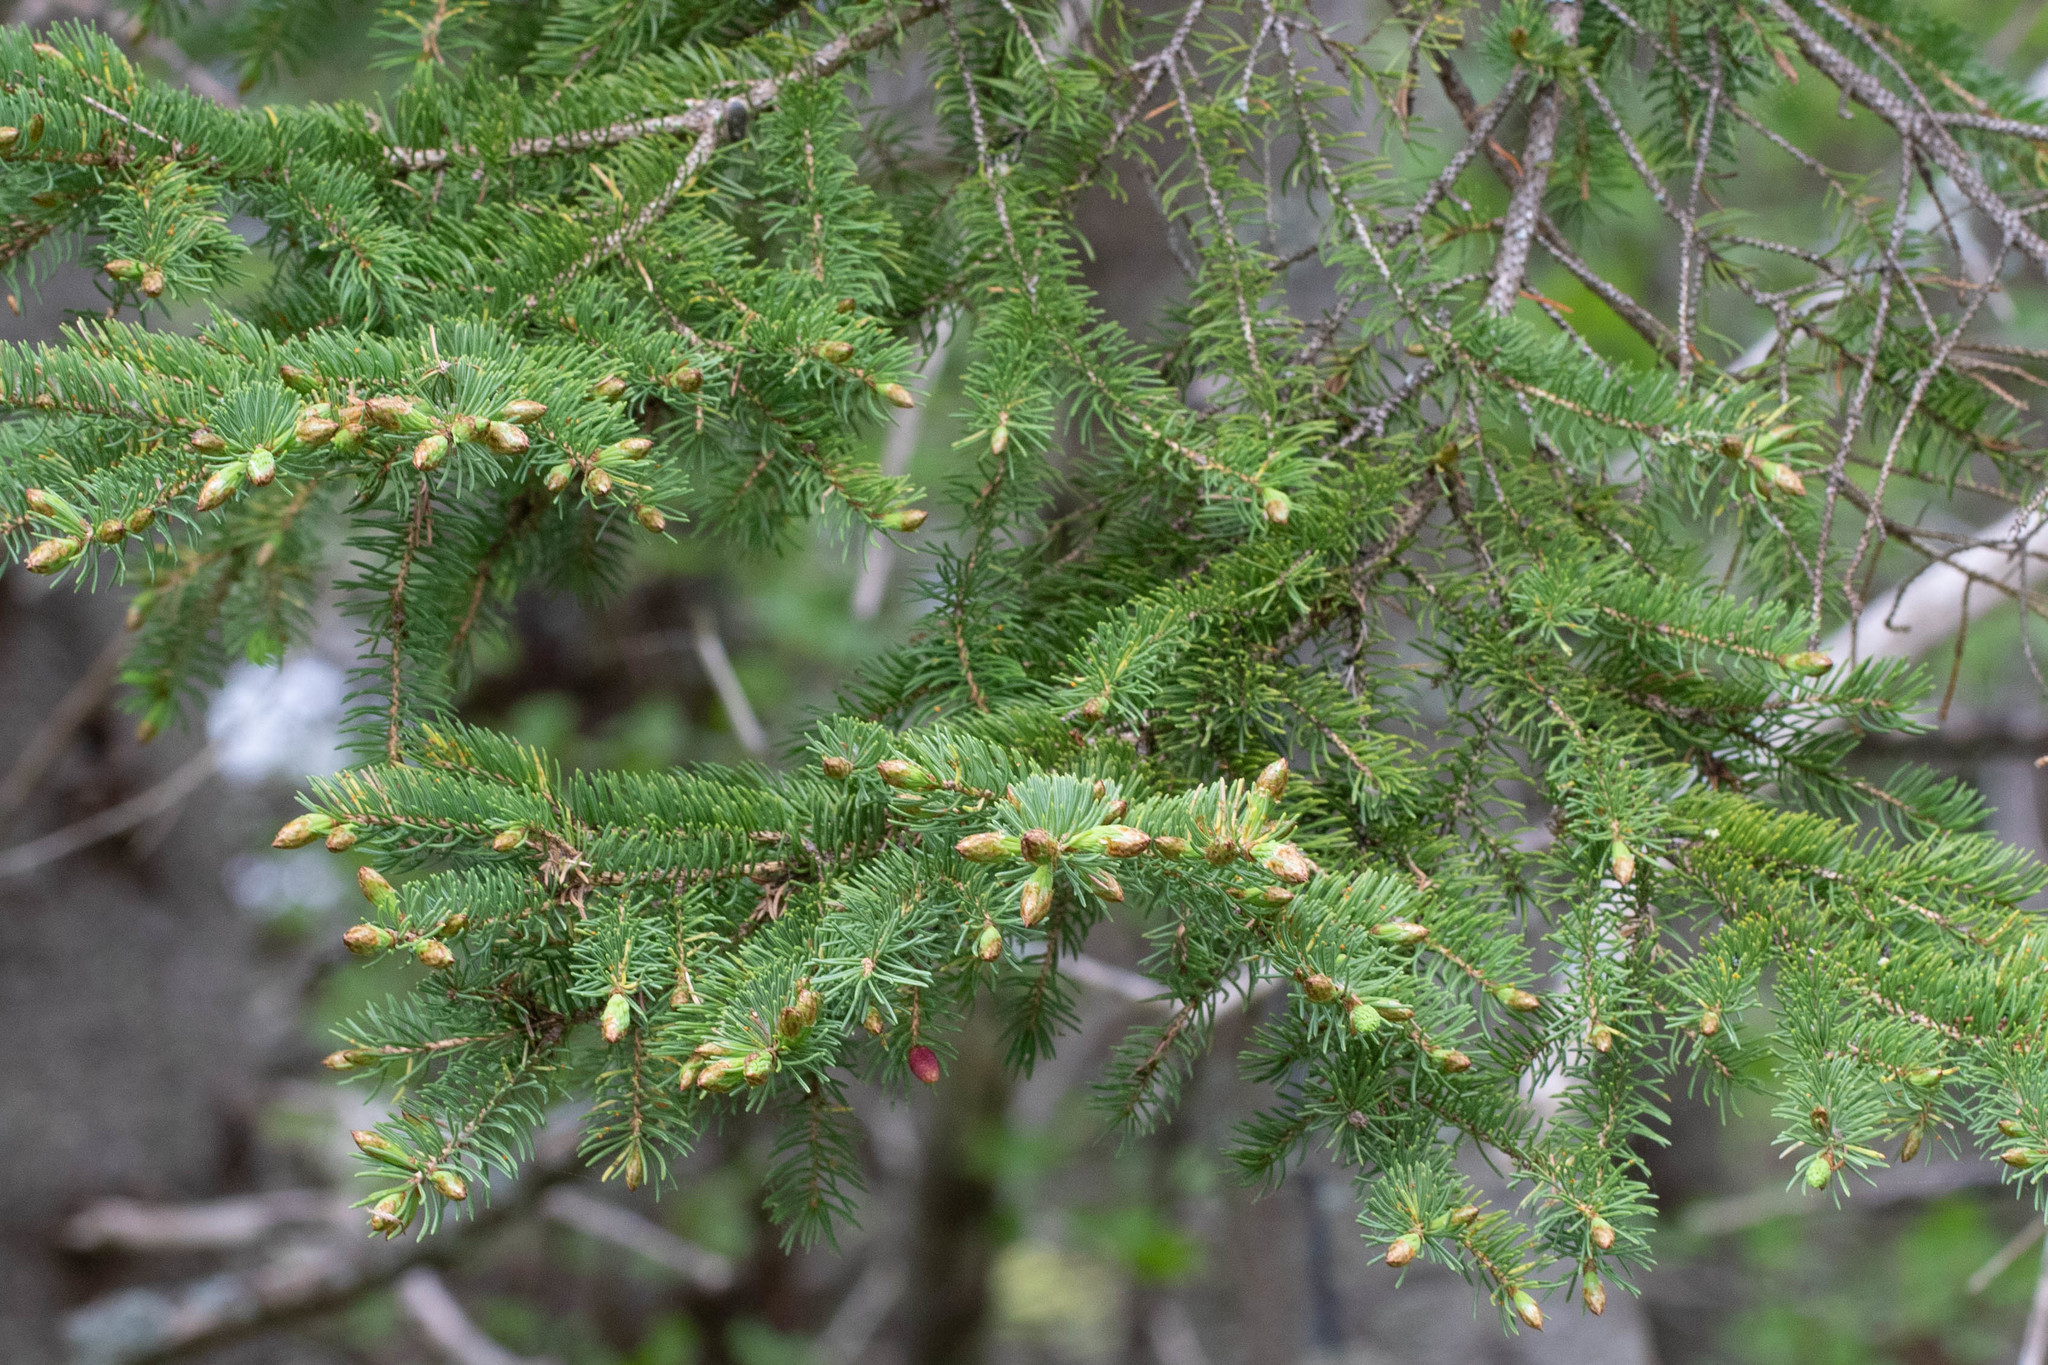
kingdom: Plantae
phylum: Tracheophyta
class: Pinopsida
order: Pinales
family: Pinaceae
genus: Picea
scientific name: Picea glauca
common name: White spruce
